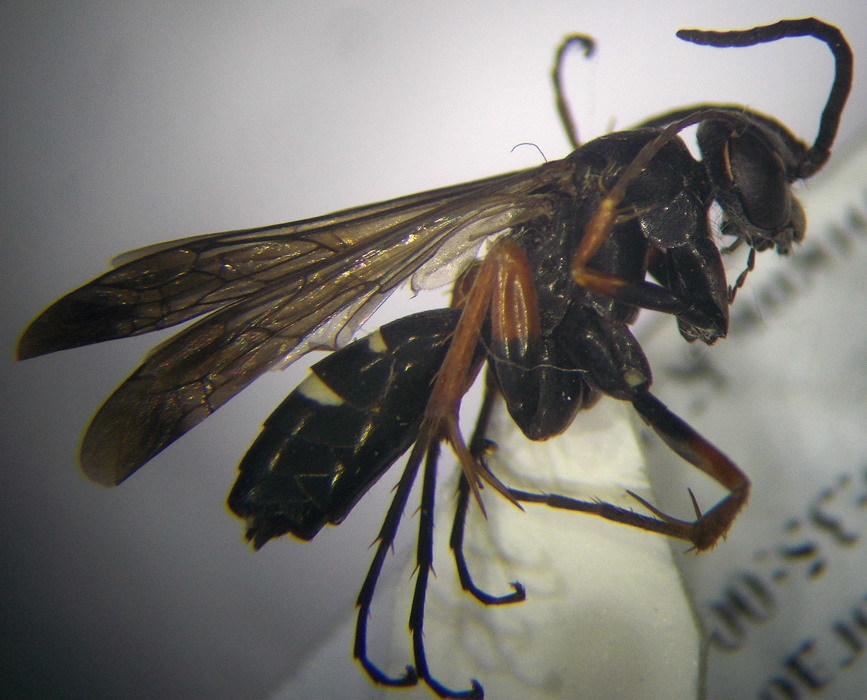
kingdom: Animalia
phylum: Arthropoda
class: Insecta
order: Hymenoptera
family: Pompilidae
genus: Episyron
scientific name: Episyron albonotatum
